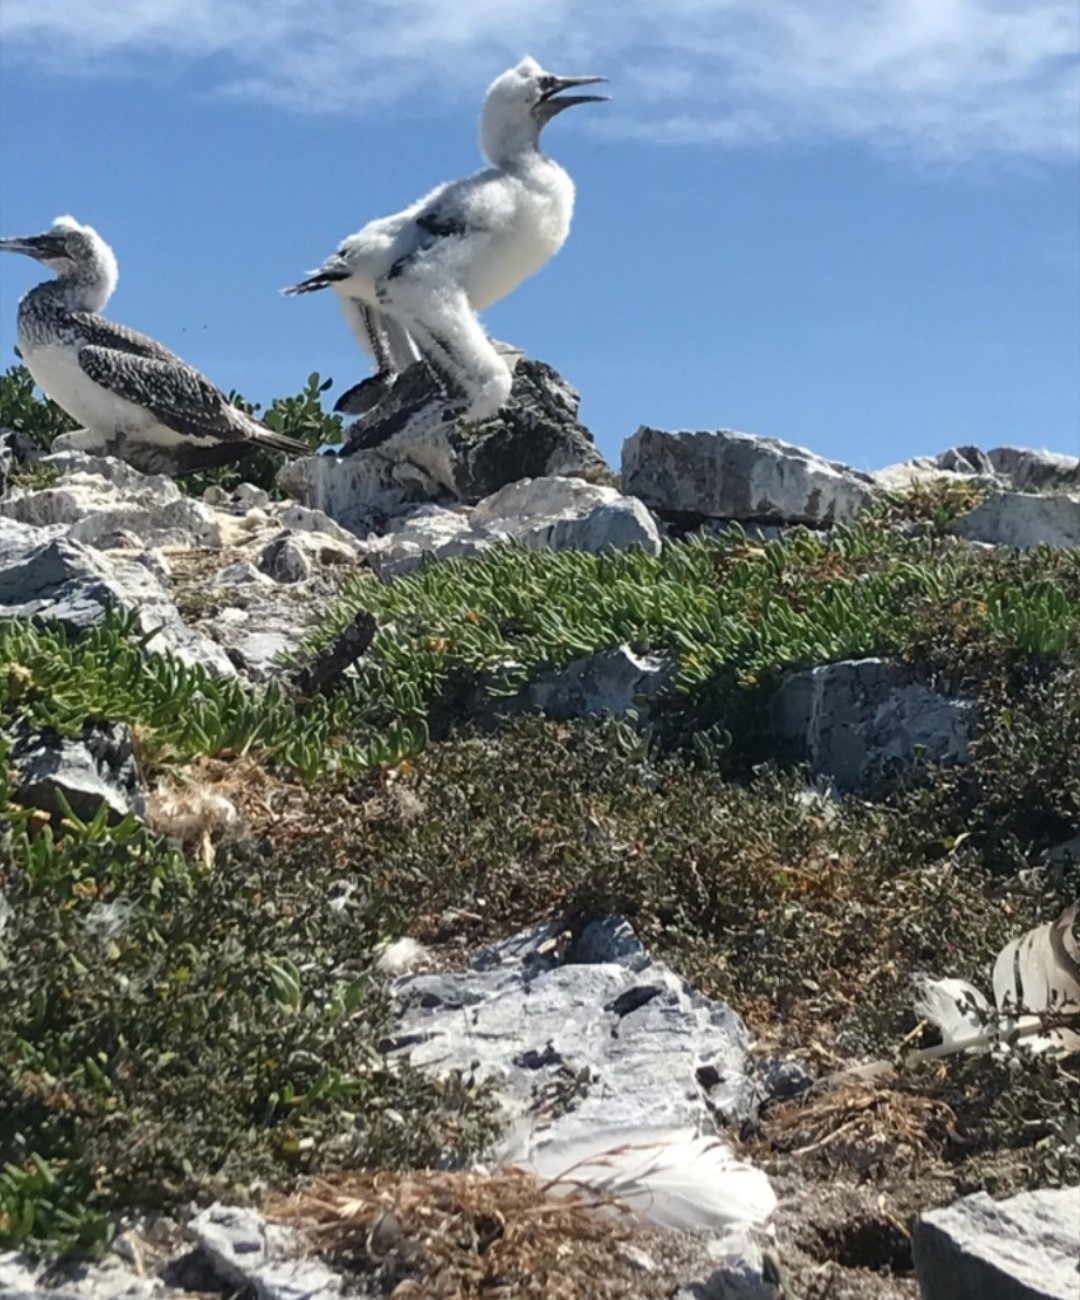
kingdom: Animalia
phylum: Chordata
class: Aves
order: Suliformes
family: Sulidae
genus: Morus
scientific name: Morus serrator
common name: Australasian gannet
